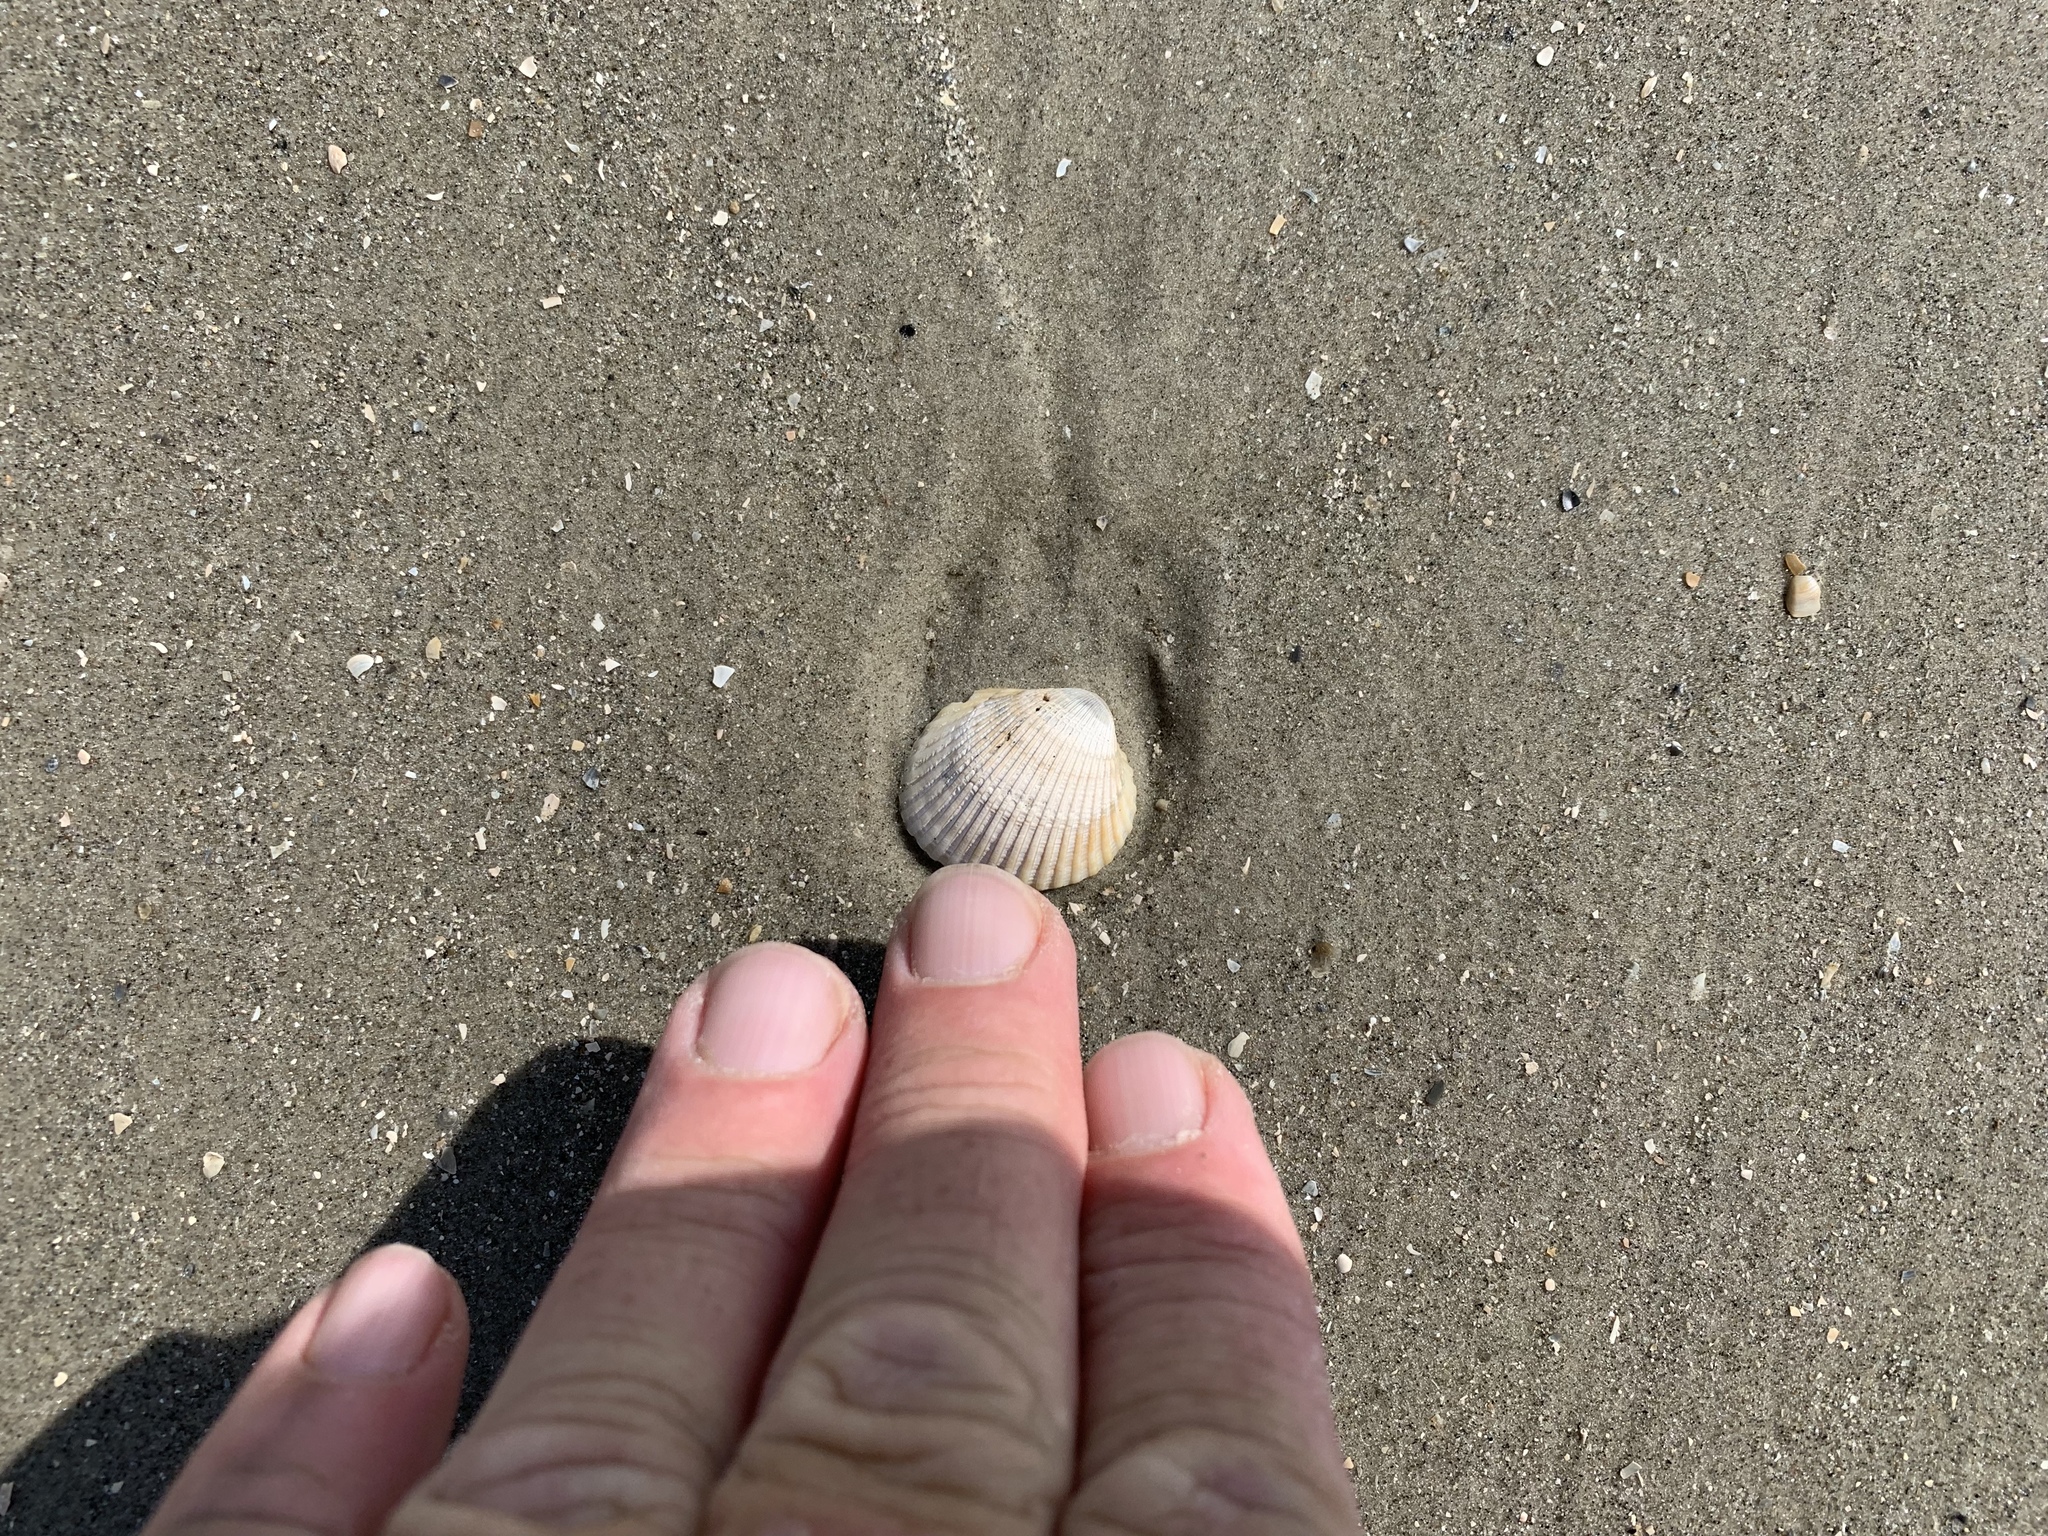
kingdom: Animalia
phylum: Mollusca
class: Bivalvia
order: Arcida
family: Arcidae
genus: Lunarca
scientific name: Lunarca ovalis
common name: Blood ark
